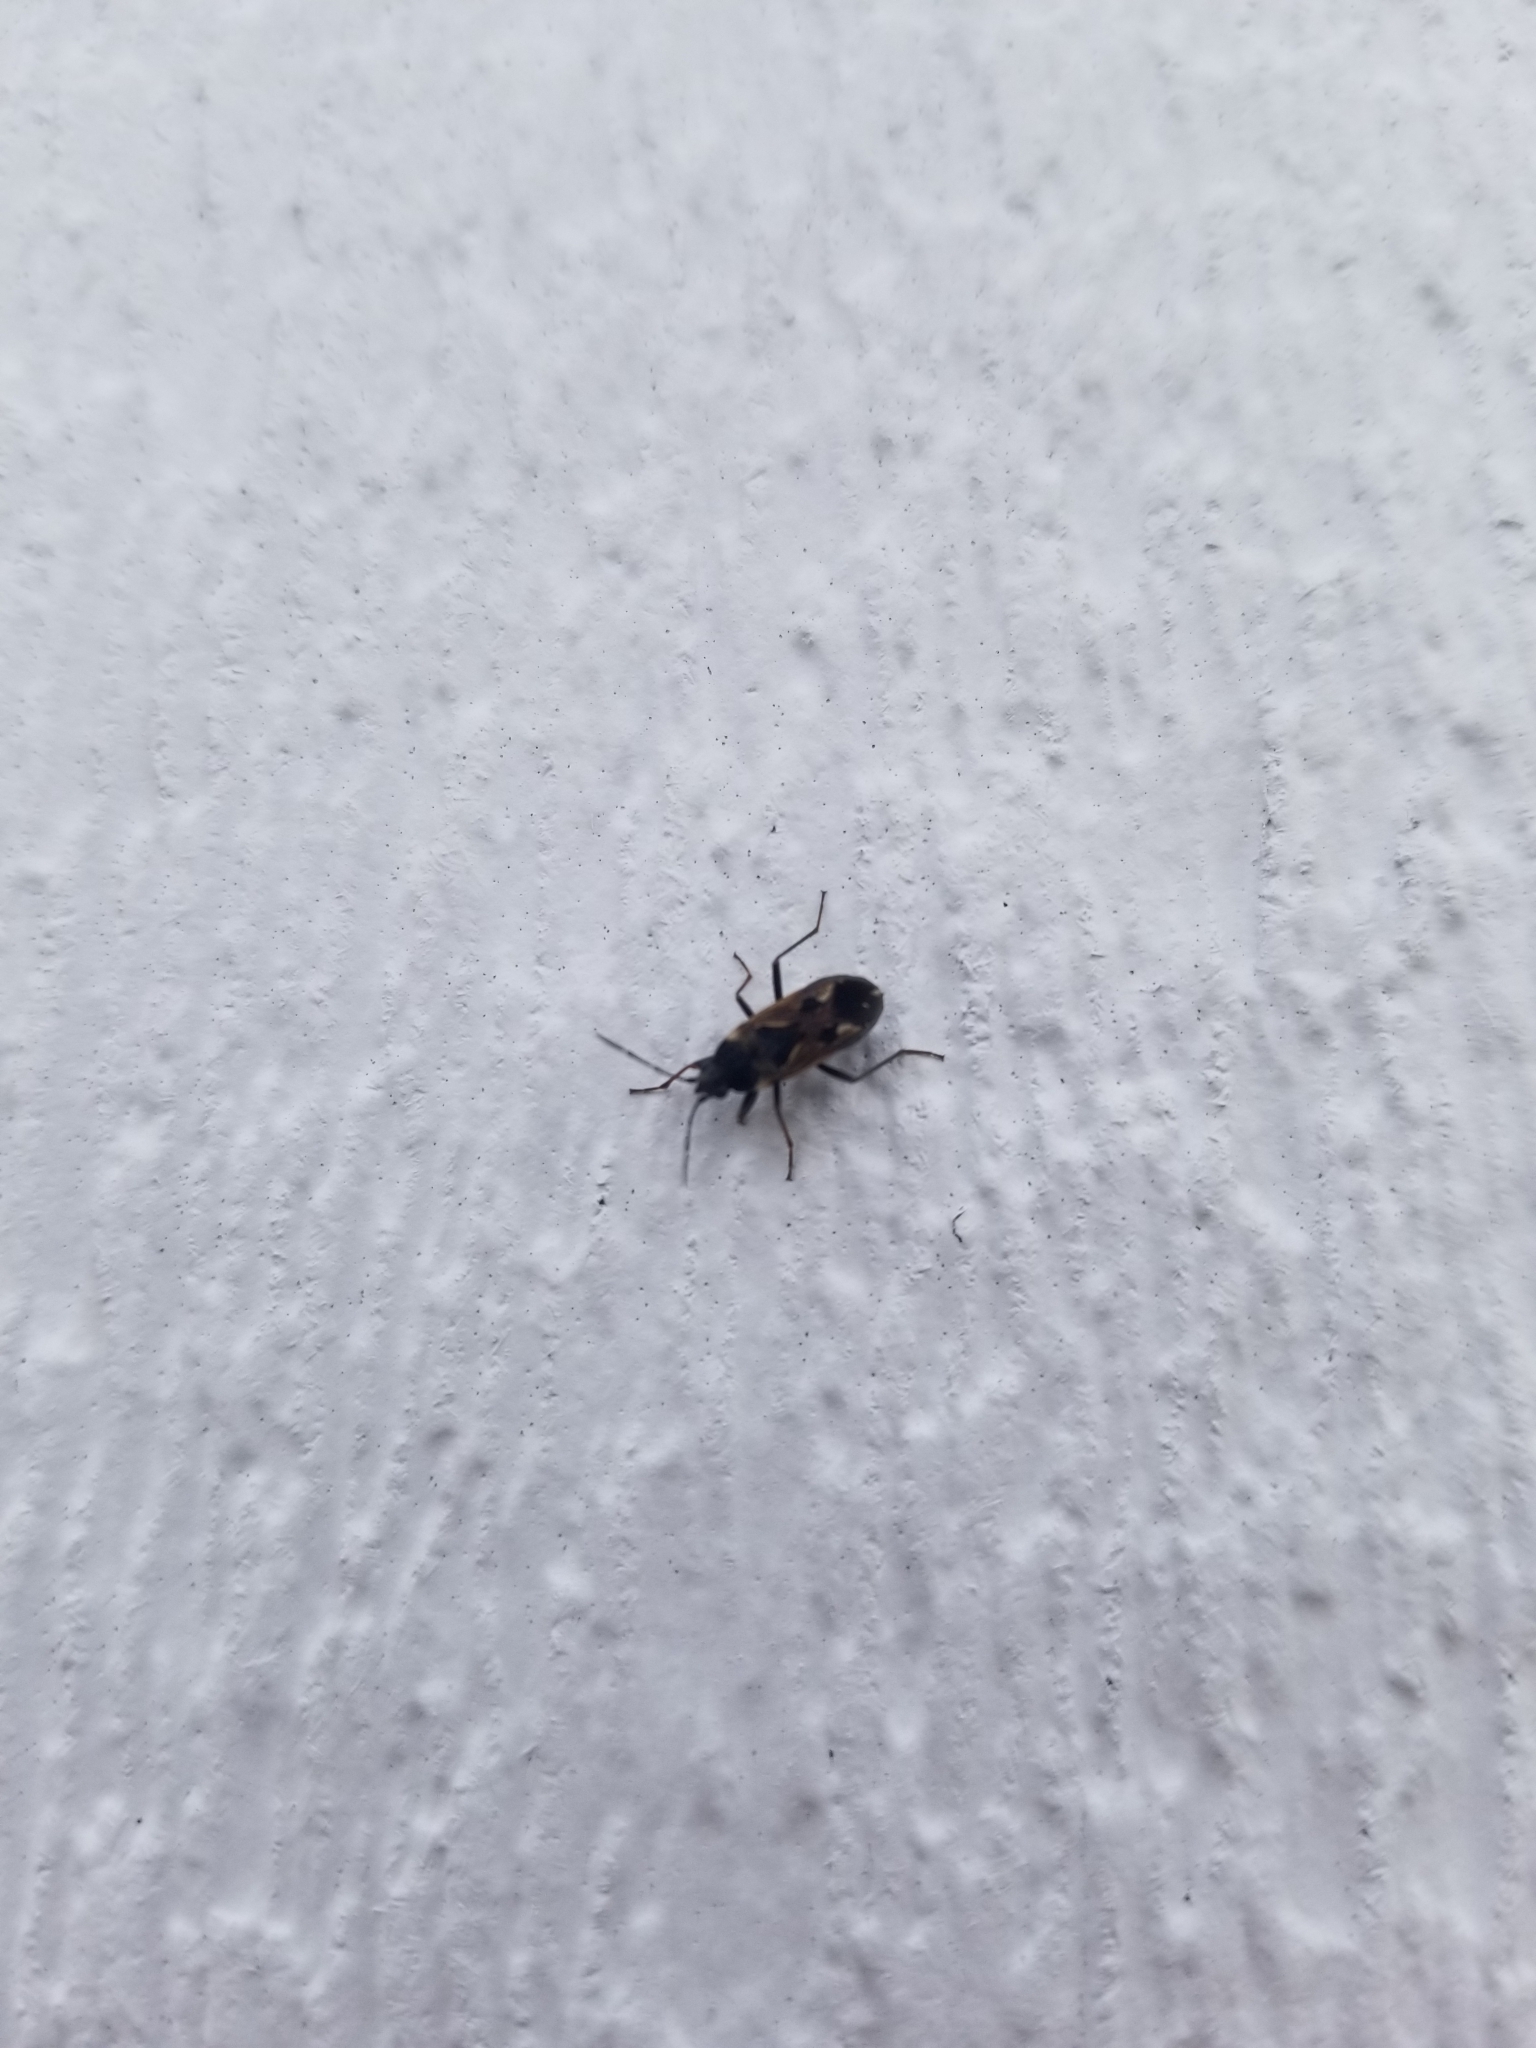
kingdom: Animalia
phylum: Arthropoda
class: Insecta
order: Hemiptera
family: Rhyparochromidae
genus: Rhyparochromus
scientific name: Rhyparochromus vulgaris
